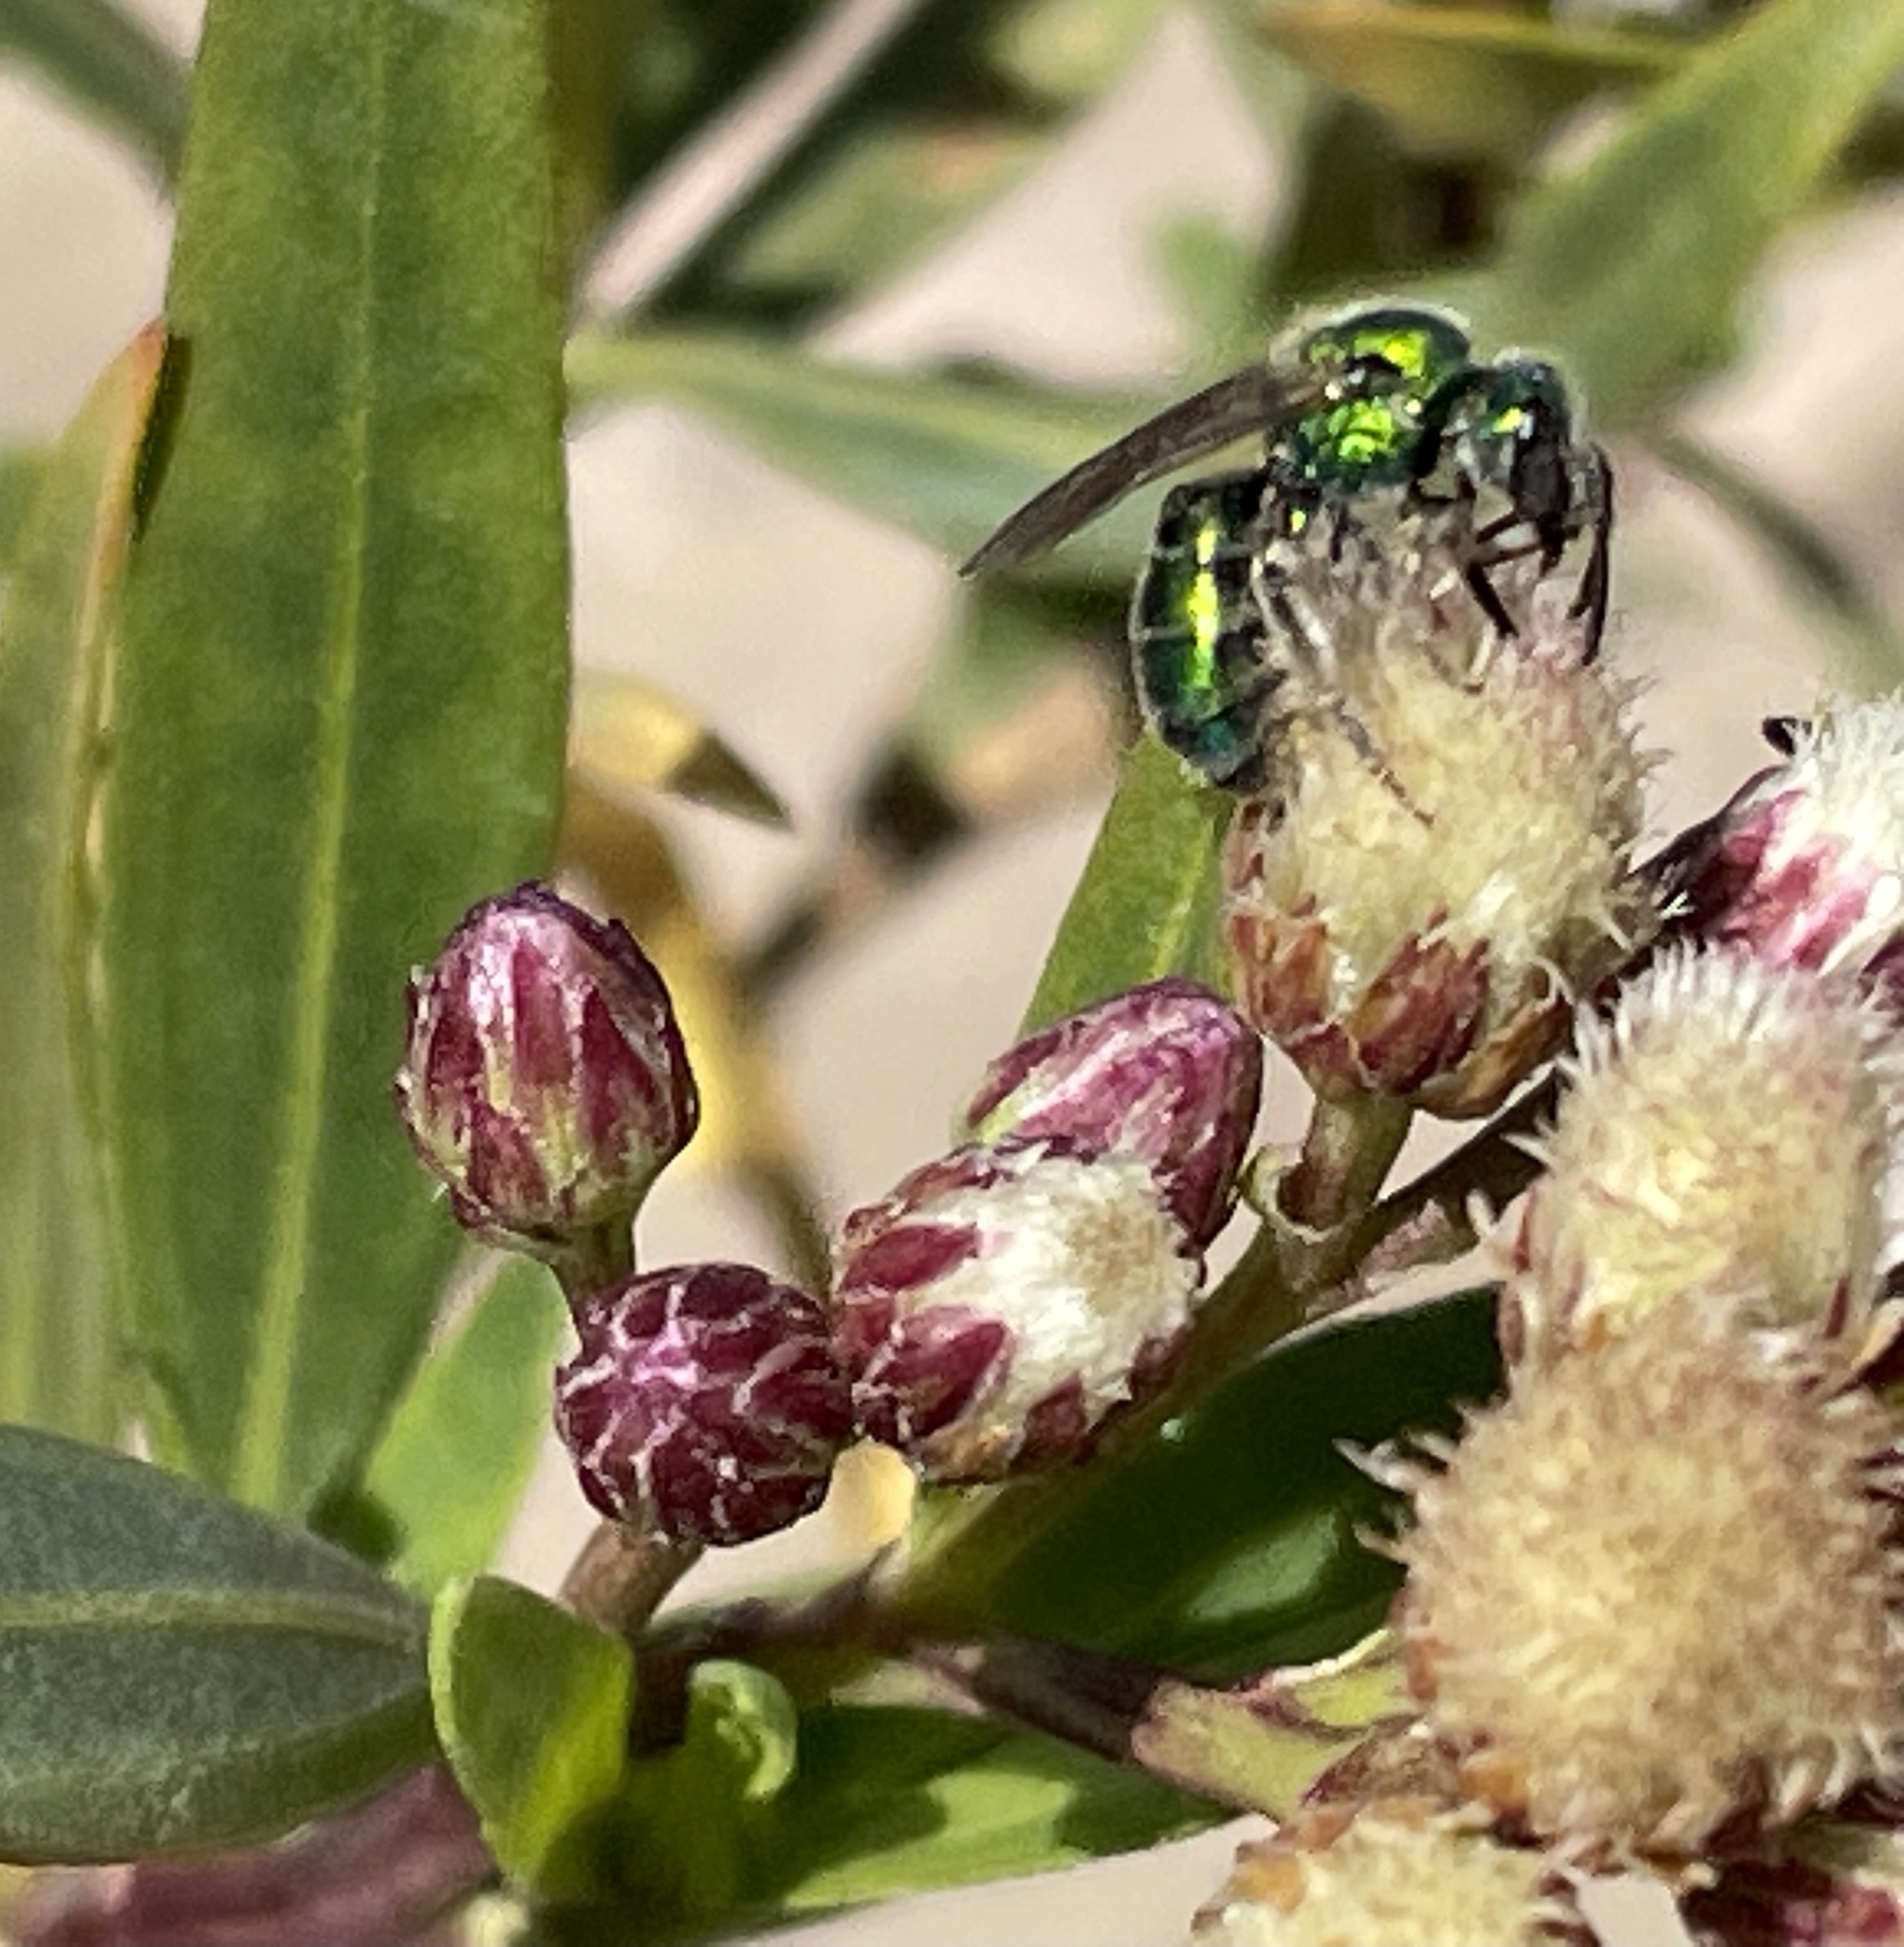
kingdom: Plantae
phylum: Tracheophyta
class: Magnoliopsida
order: Asterales
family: Asteraceae
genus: Baccharis
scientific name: Baccharis salicifolia
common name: Sticky baccharis
